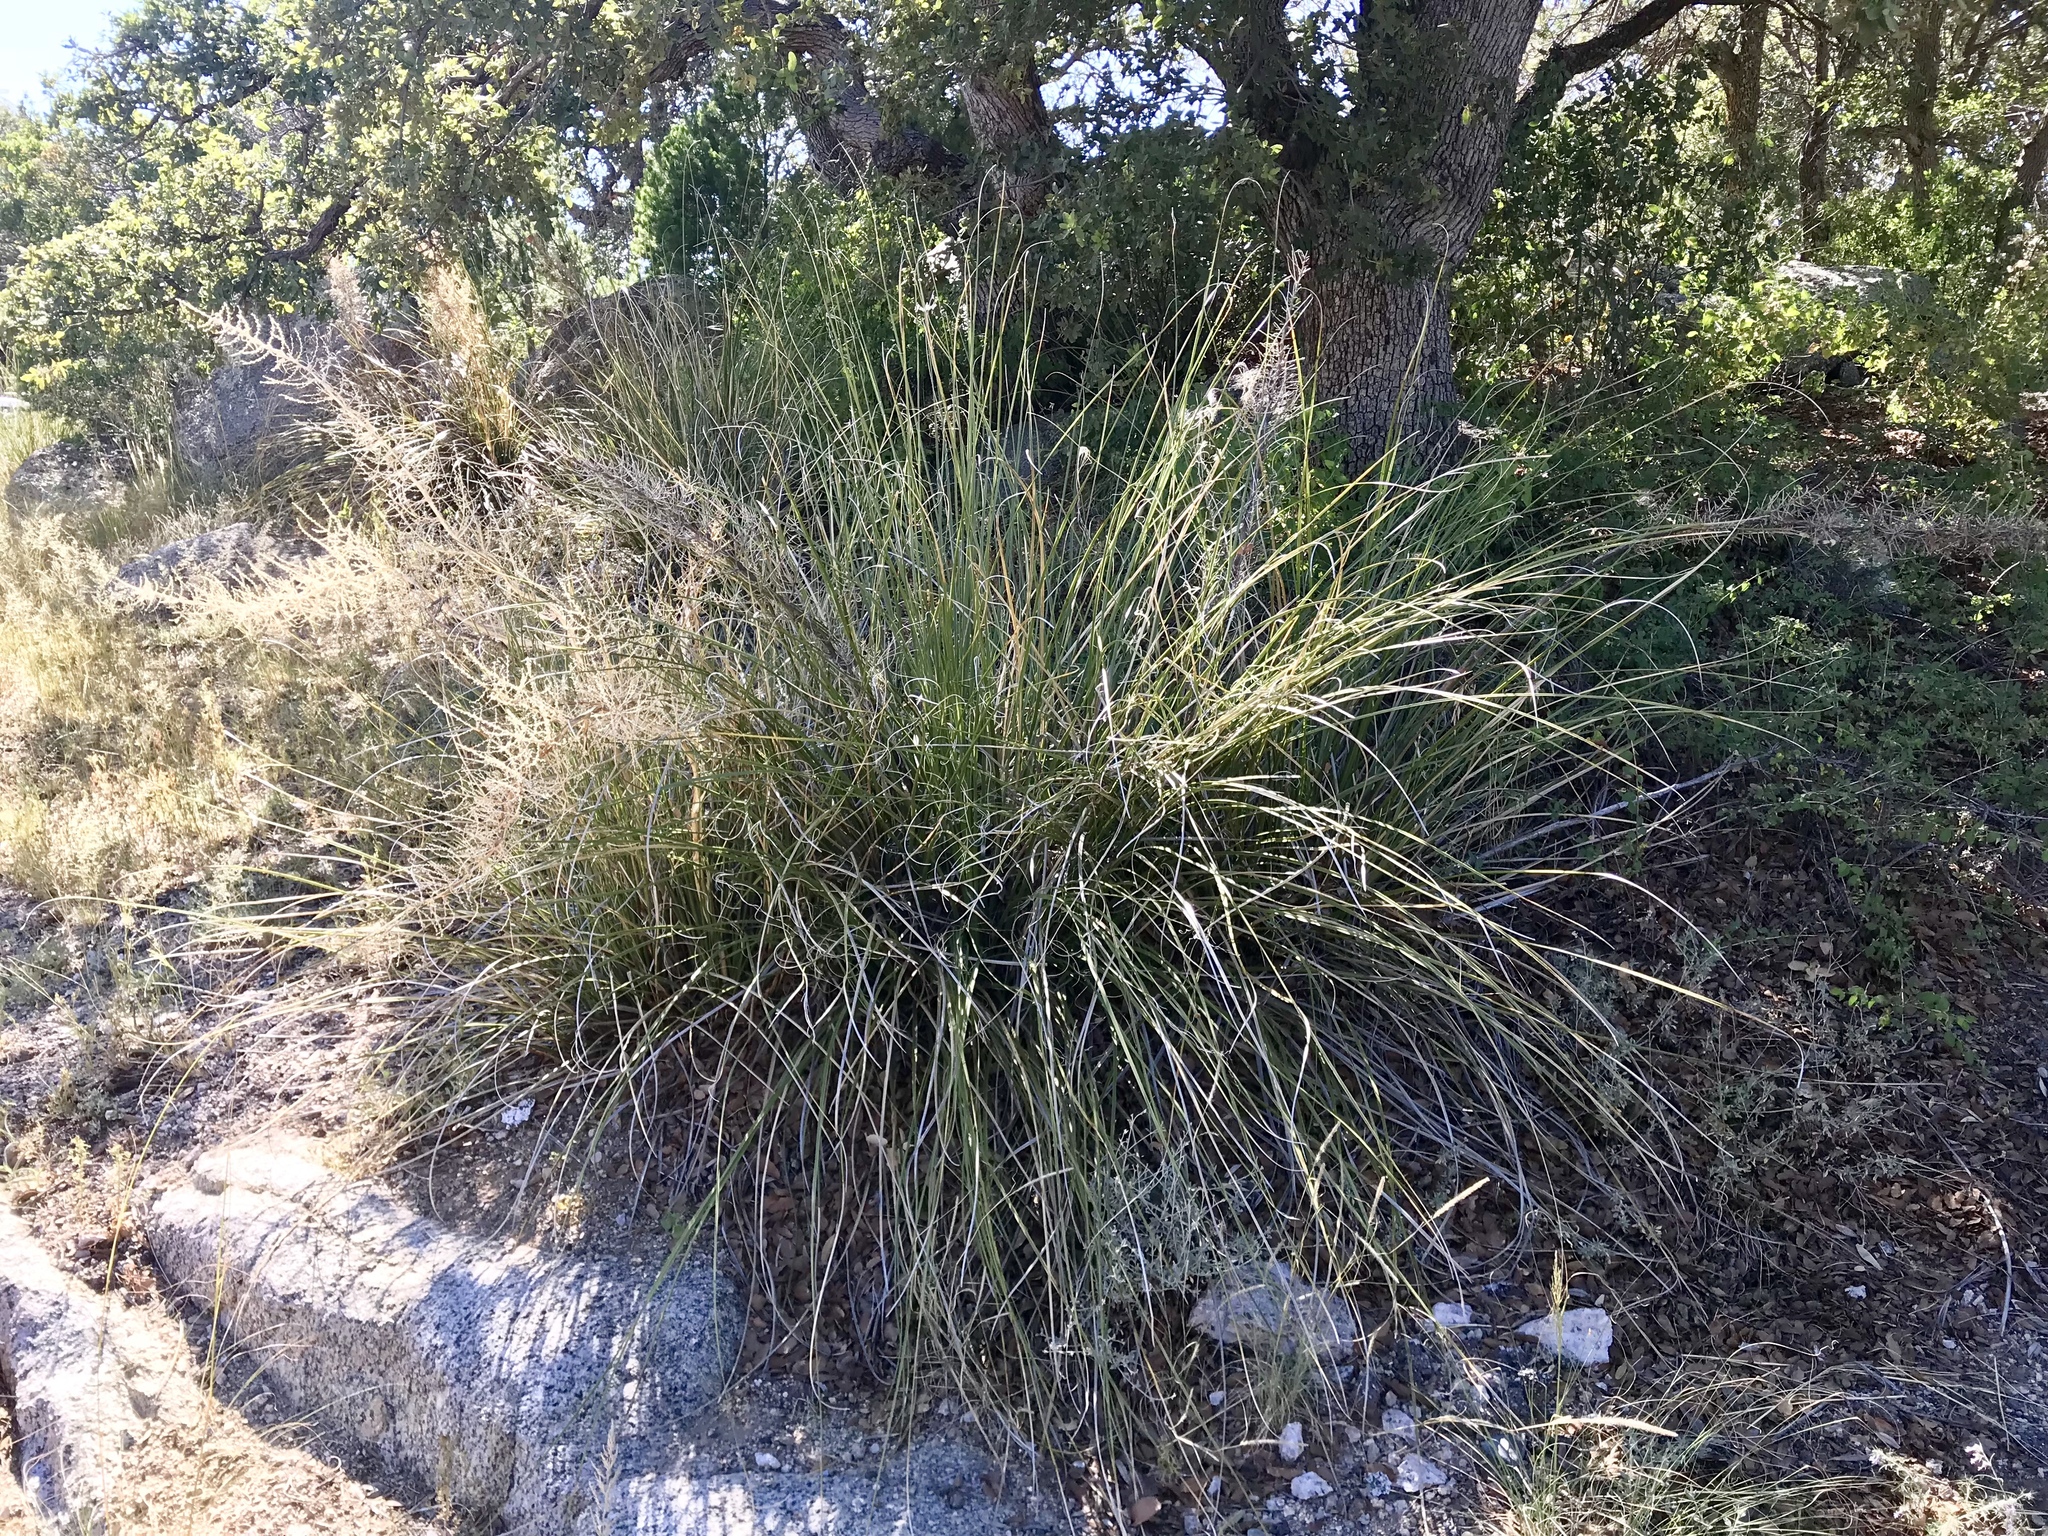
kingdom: Plantae
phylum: Tracheophyta
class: Liliopsida
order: Asparagales
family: Asparagaceae
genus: Nolina
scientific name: Nolina microcarpa
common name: Bear-grass
